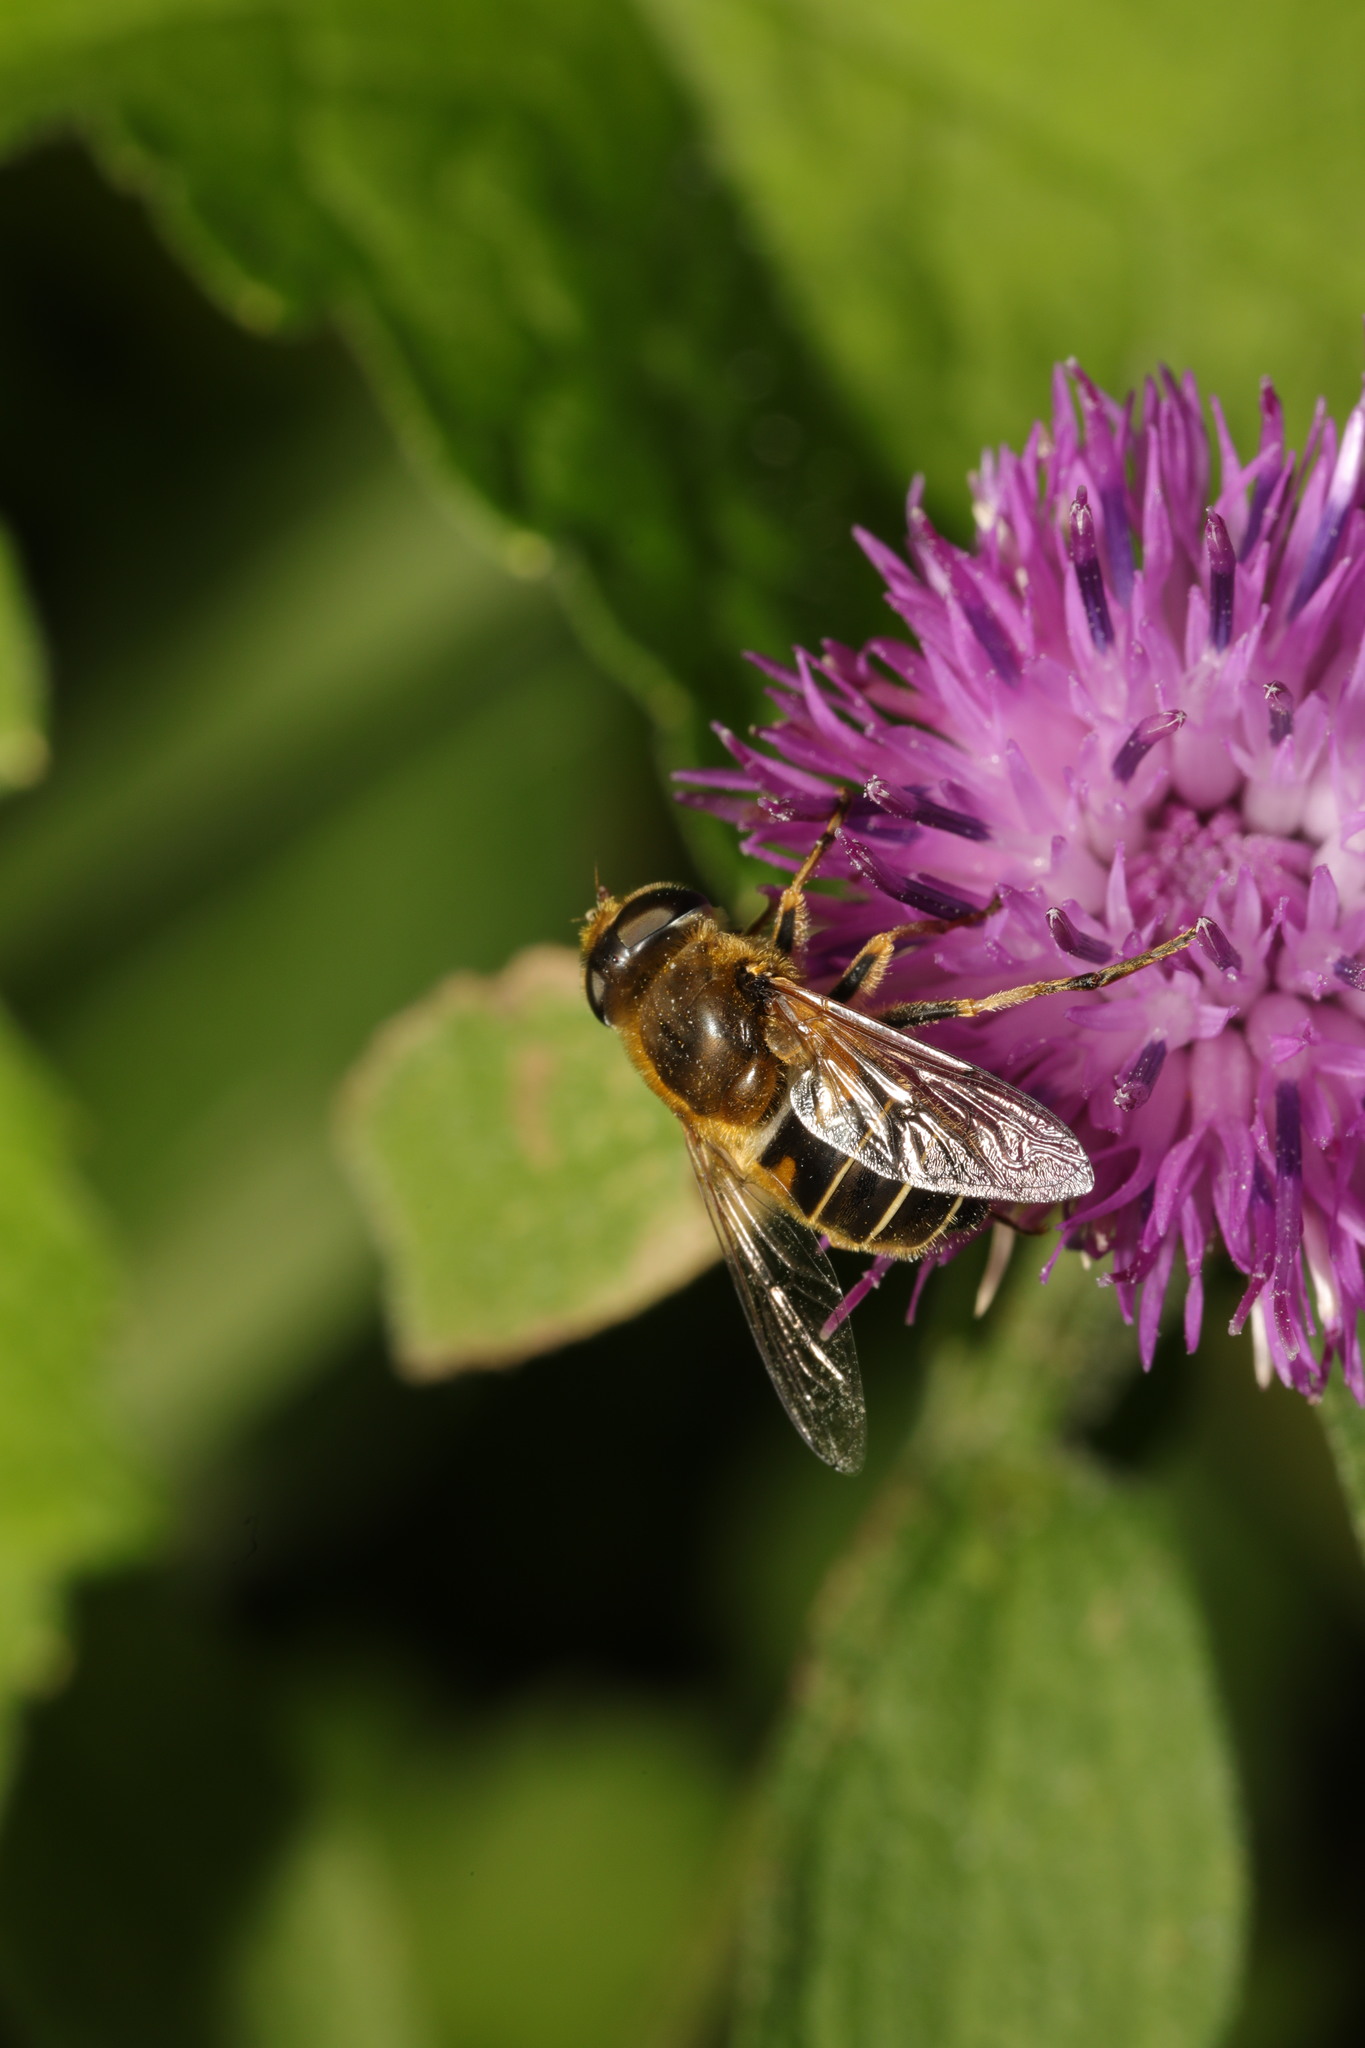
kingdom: Animalia
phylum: Arthropoda
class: Insecta
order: Diptera
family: Syrphidae
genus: Eristalis
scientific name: Eristalis nemorum
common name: Orange-spined drone fly
